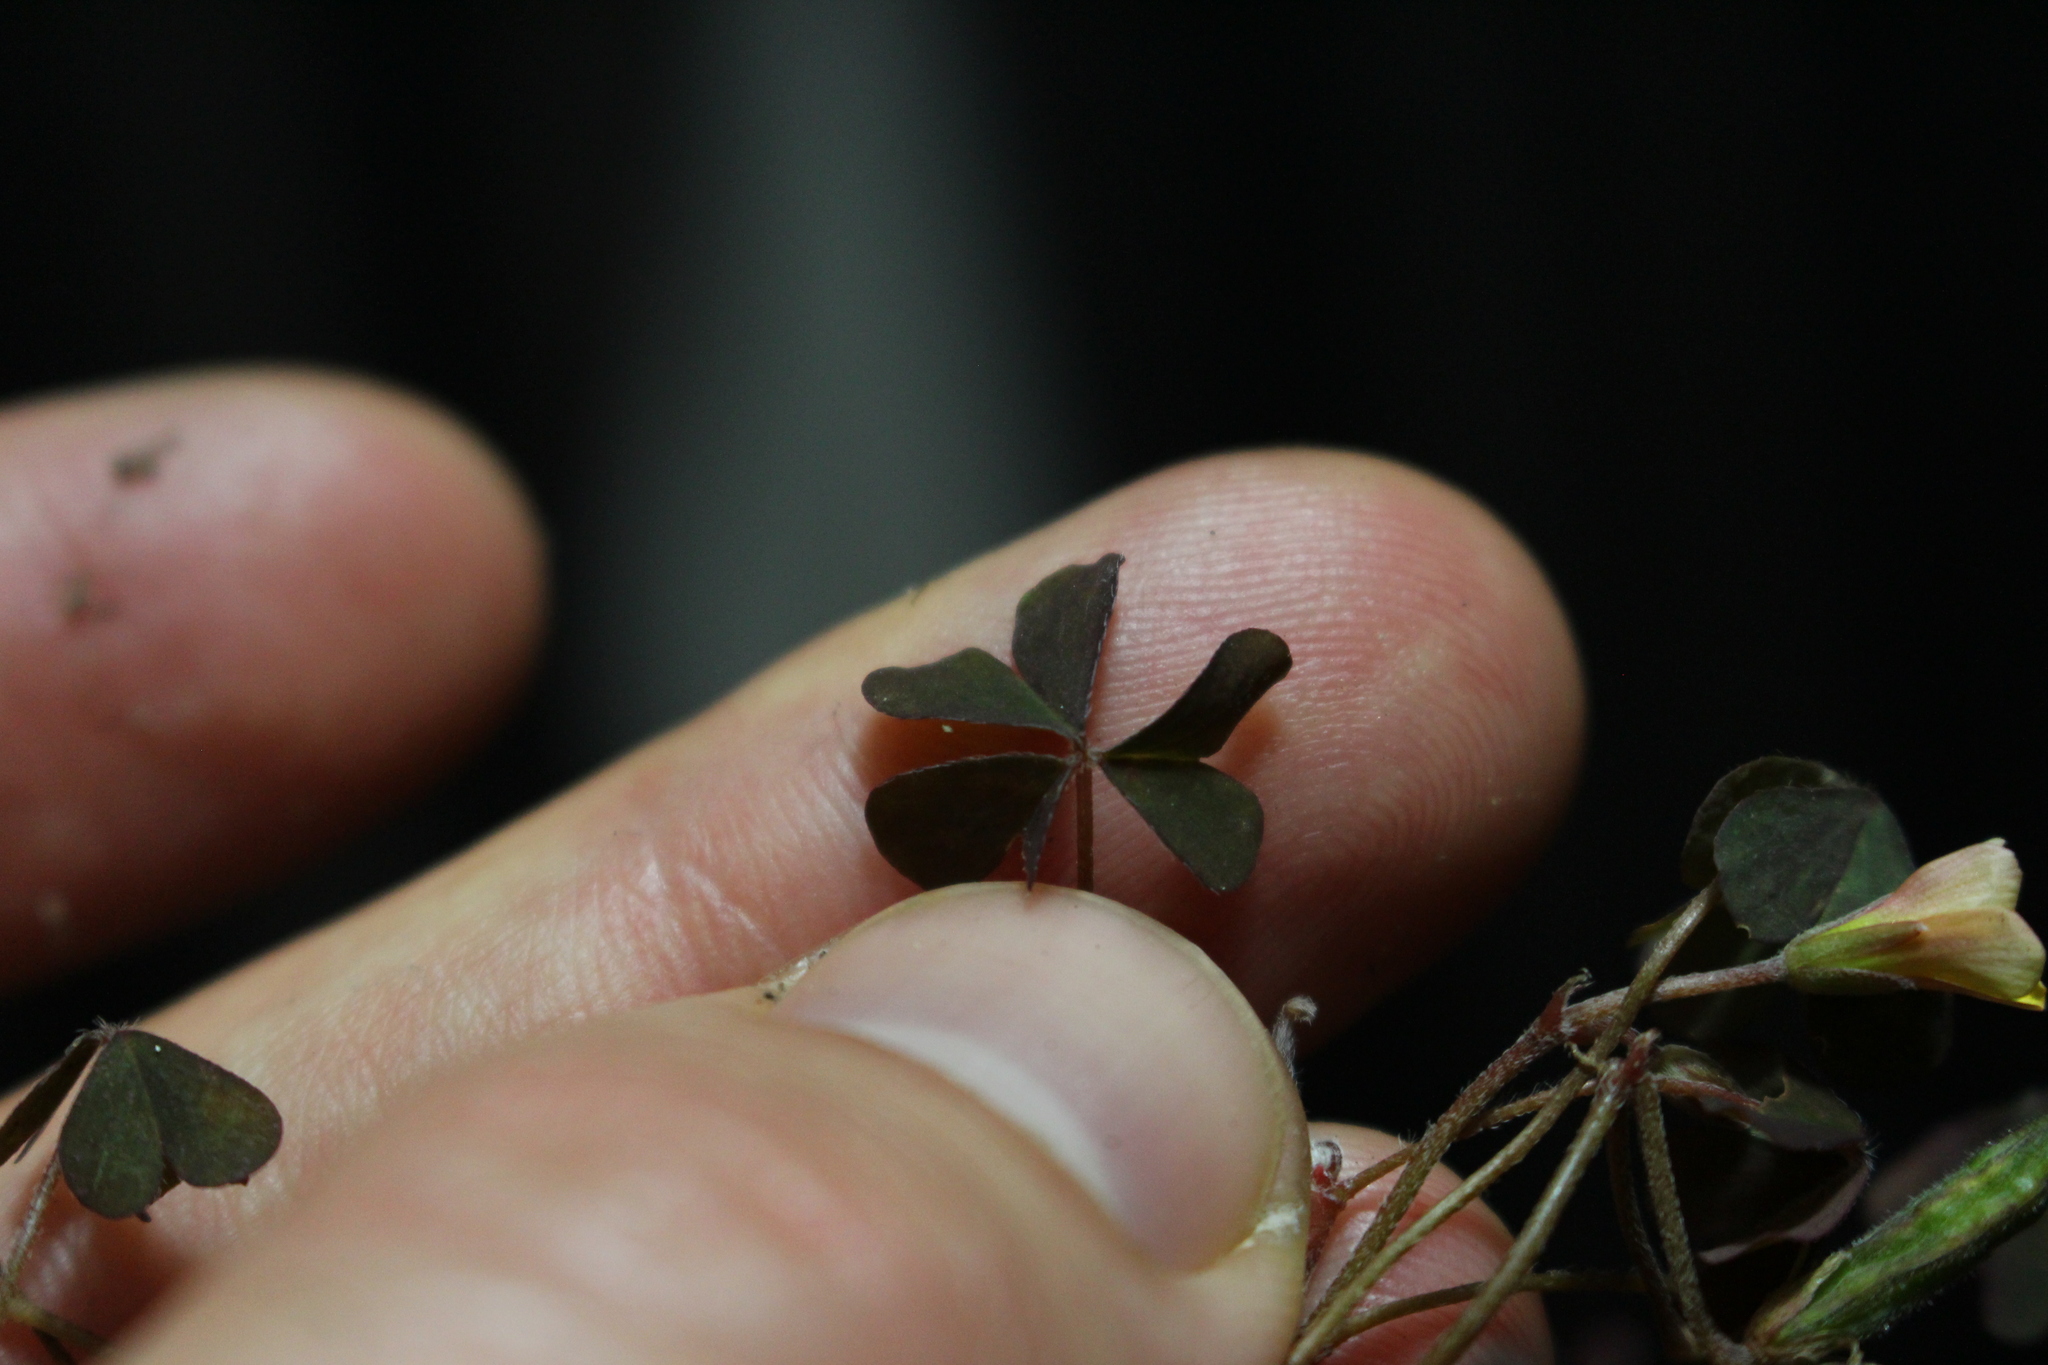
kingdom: Plantae
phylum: Tracheophyta
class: Magnoliopsida
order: Oxalidales
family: Oxalidaceae
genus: Oxalis
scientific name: Oxalis exilis
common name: Least yellow-sorrel
